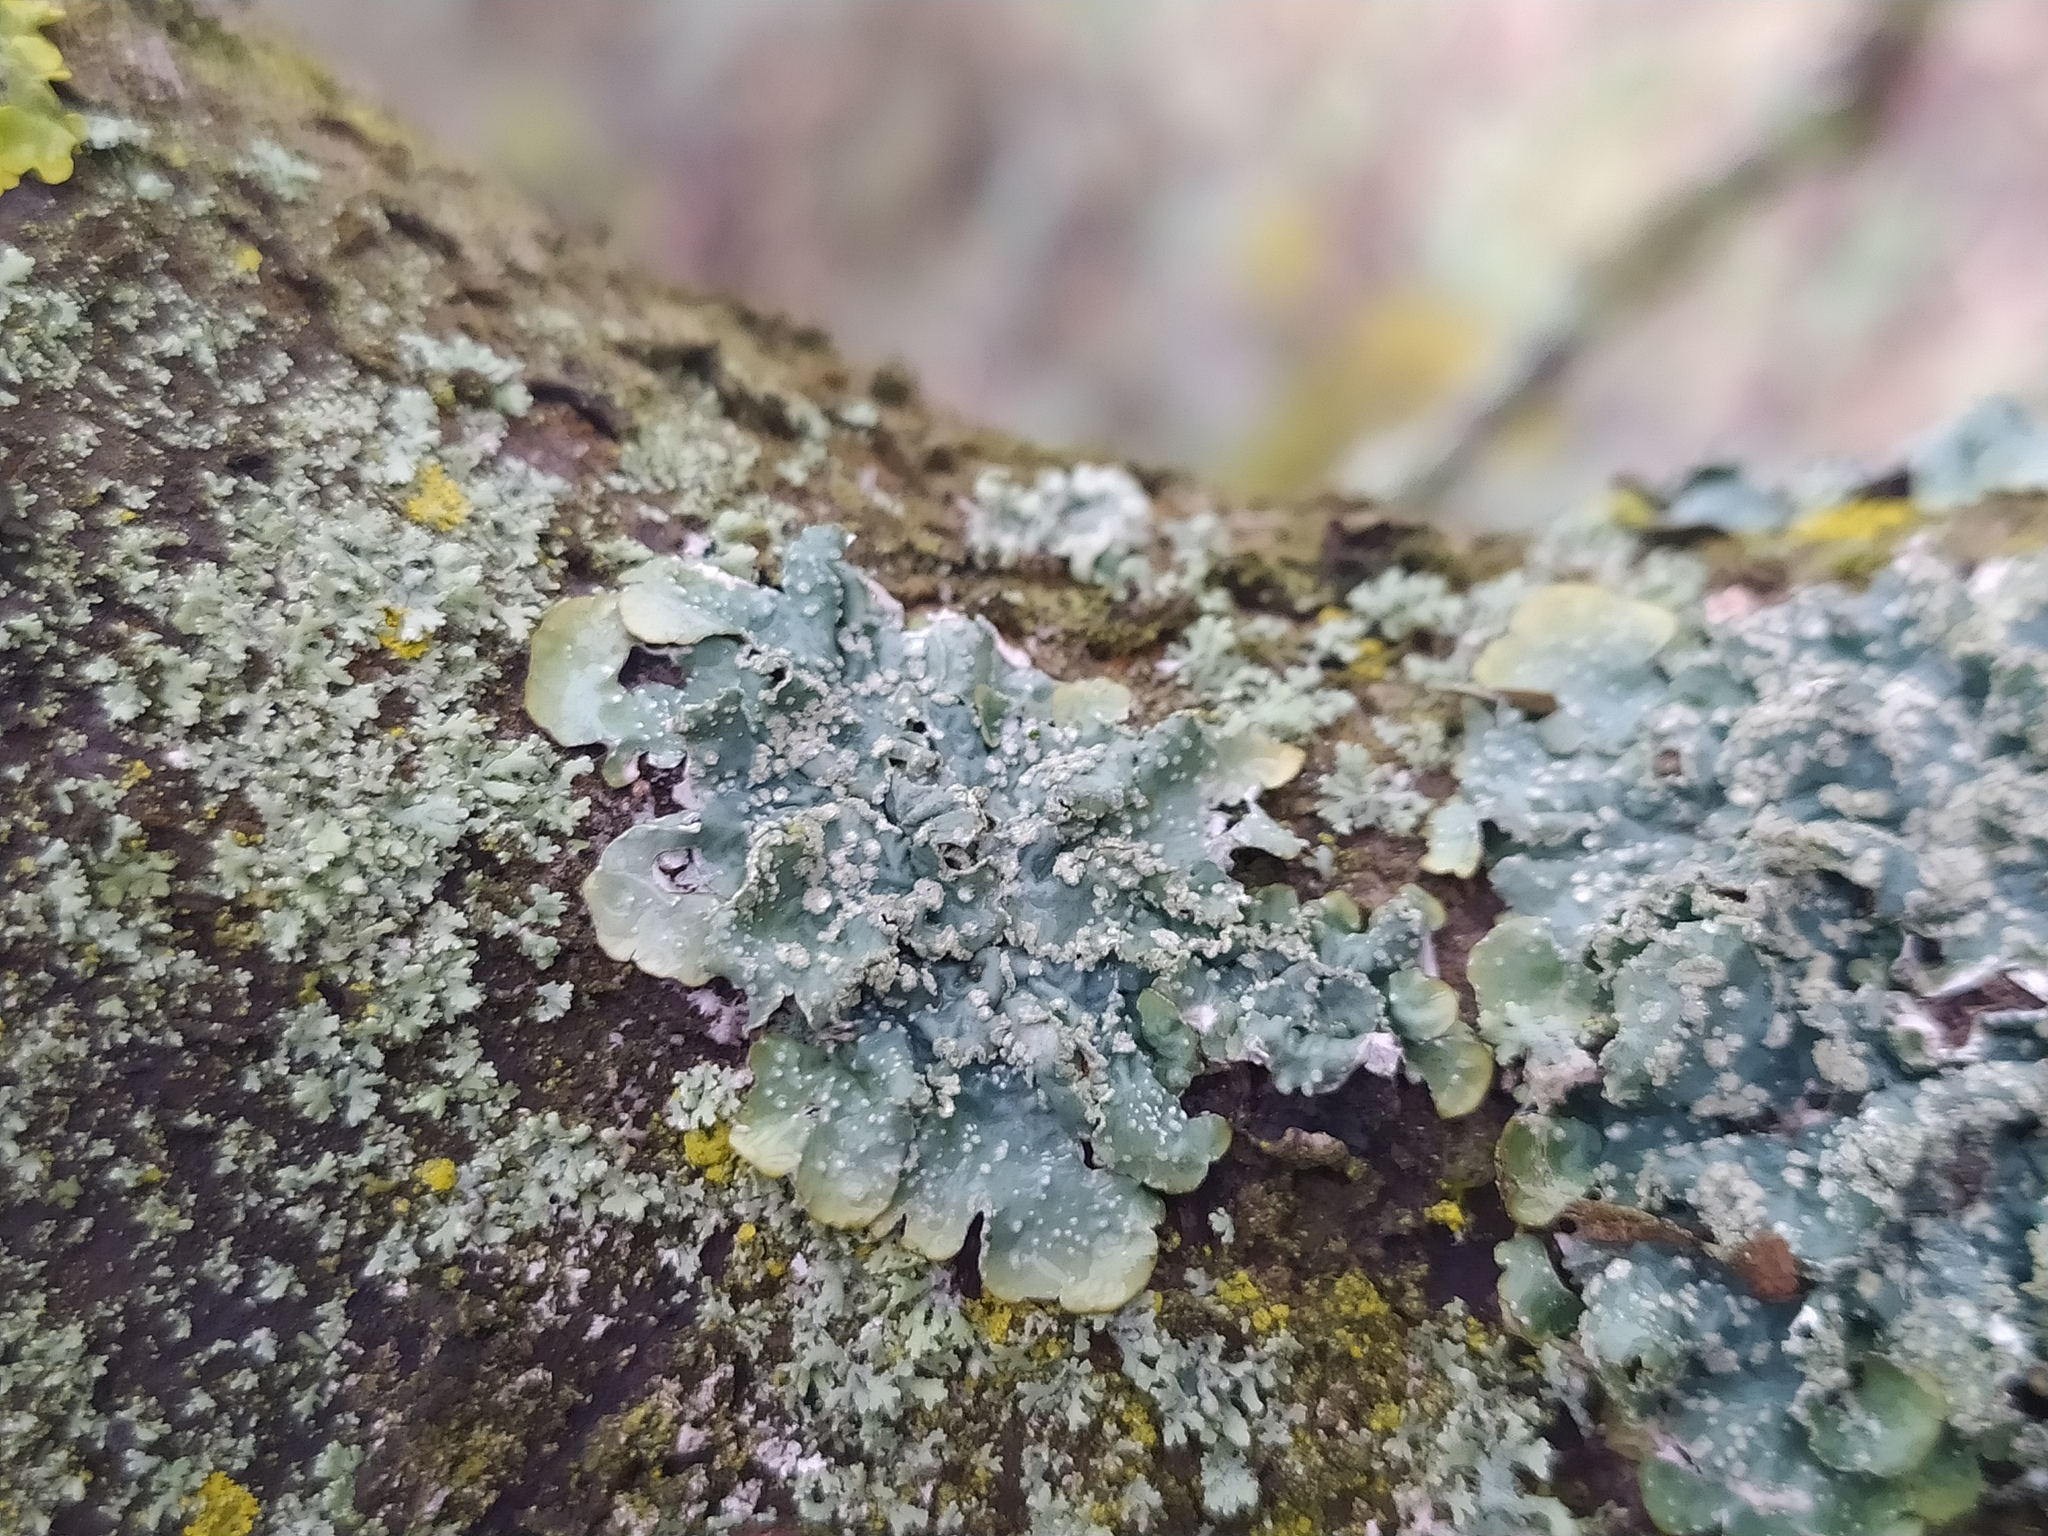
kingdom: Fungi
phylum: Ascomycota
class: Lecanoromycetes
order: Lecanorales
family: Parmeliaceae
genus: Punctelia
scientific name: Punctelia subrudecta
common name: Powdered speckled shield lichen
